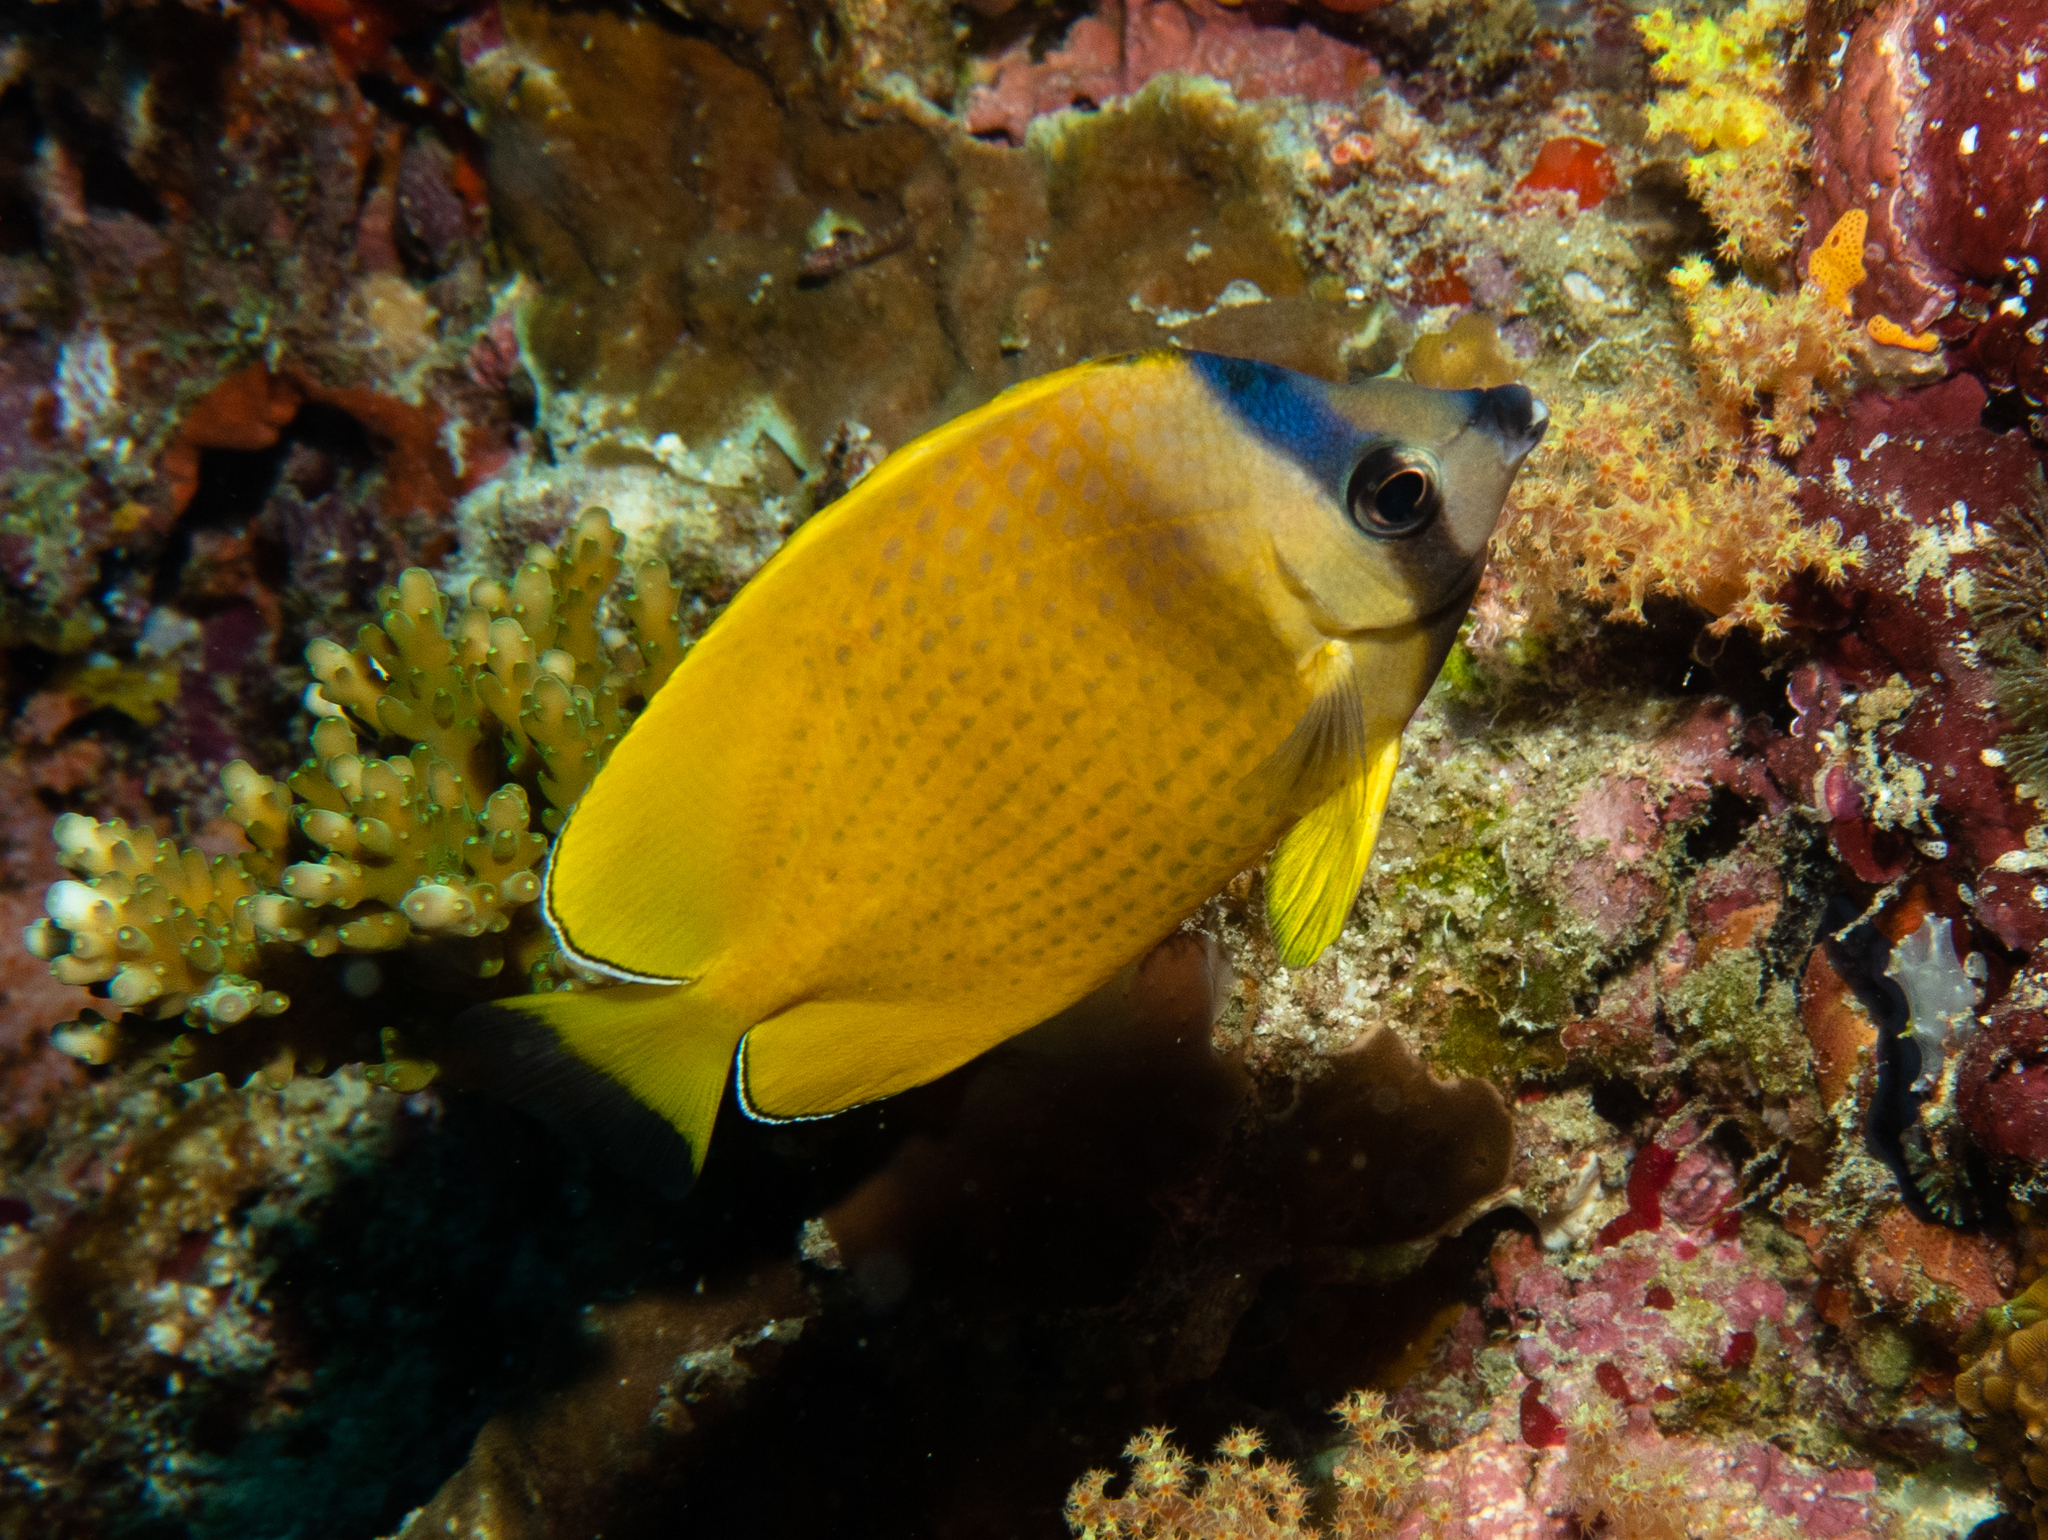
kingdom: Animalia
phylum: Chordata
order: Perciformes
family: Chaetodontidae
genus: Chaetodon
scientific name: Chaetodon kleinii
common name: Klein's butterflyfish
